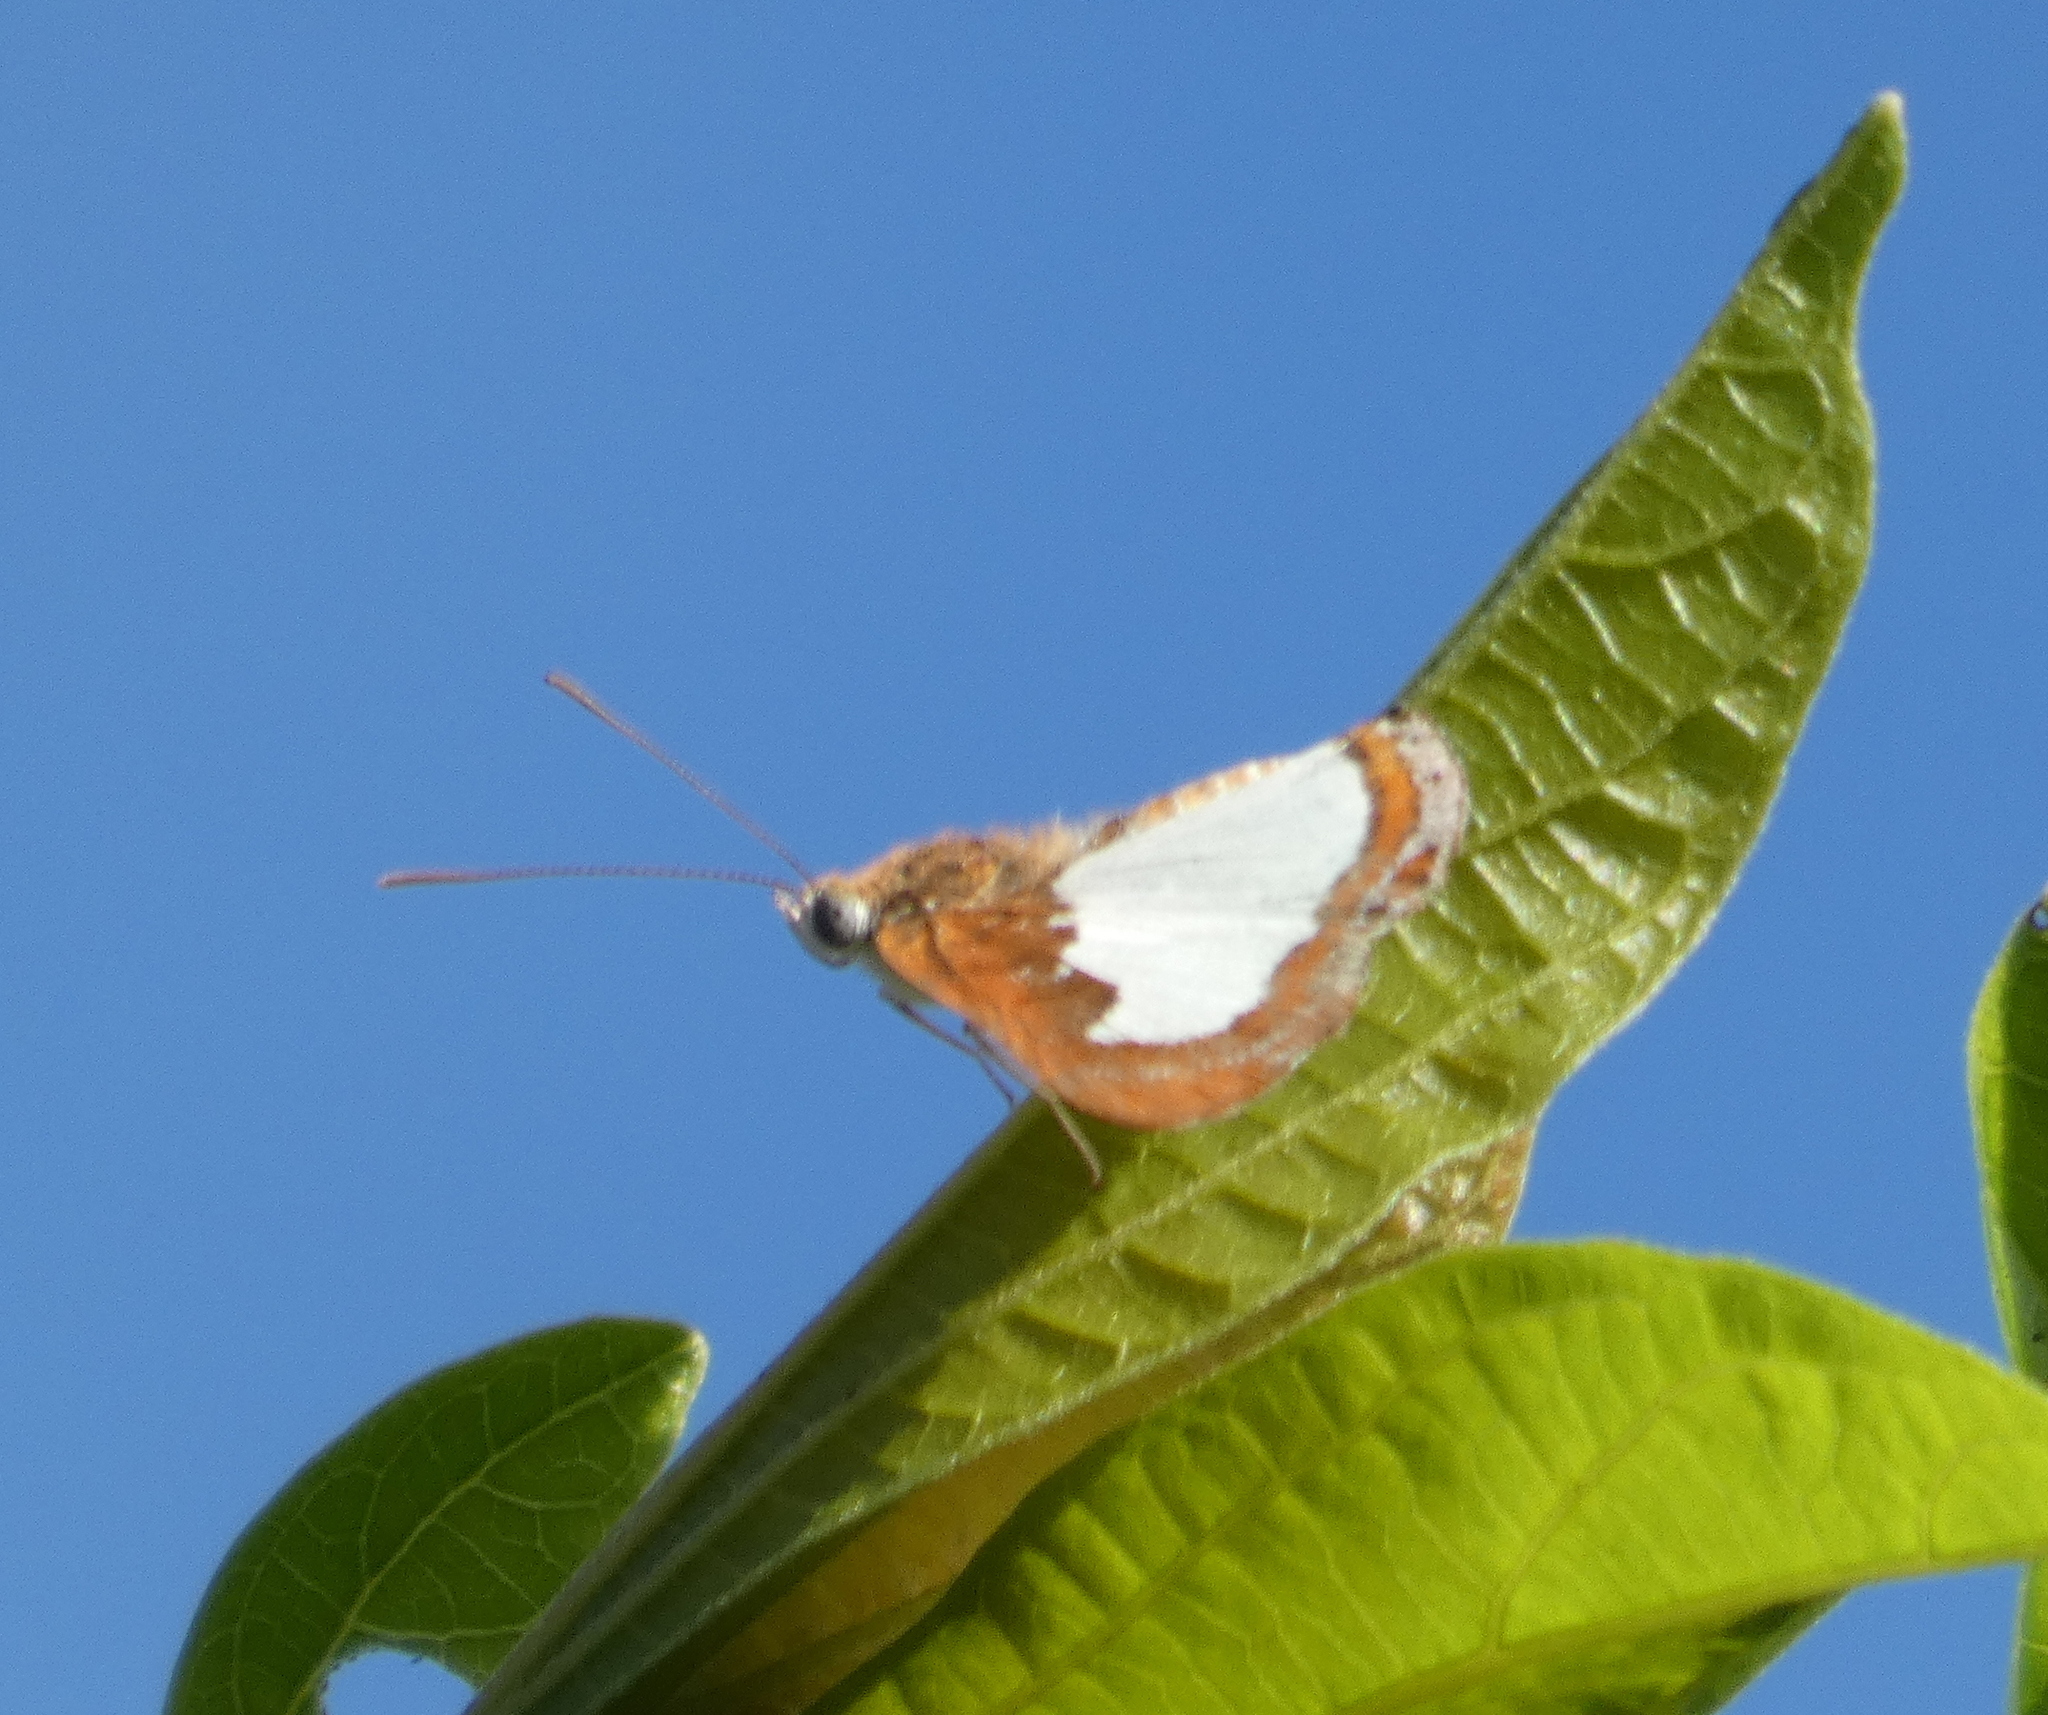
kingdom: Animalia
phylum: Arthropoda
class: Insecta
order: Lepidoptera
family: Riodinidae
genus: Nymula
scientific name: Nymula calyce
